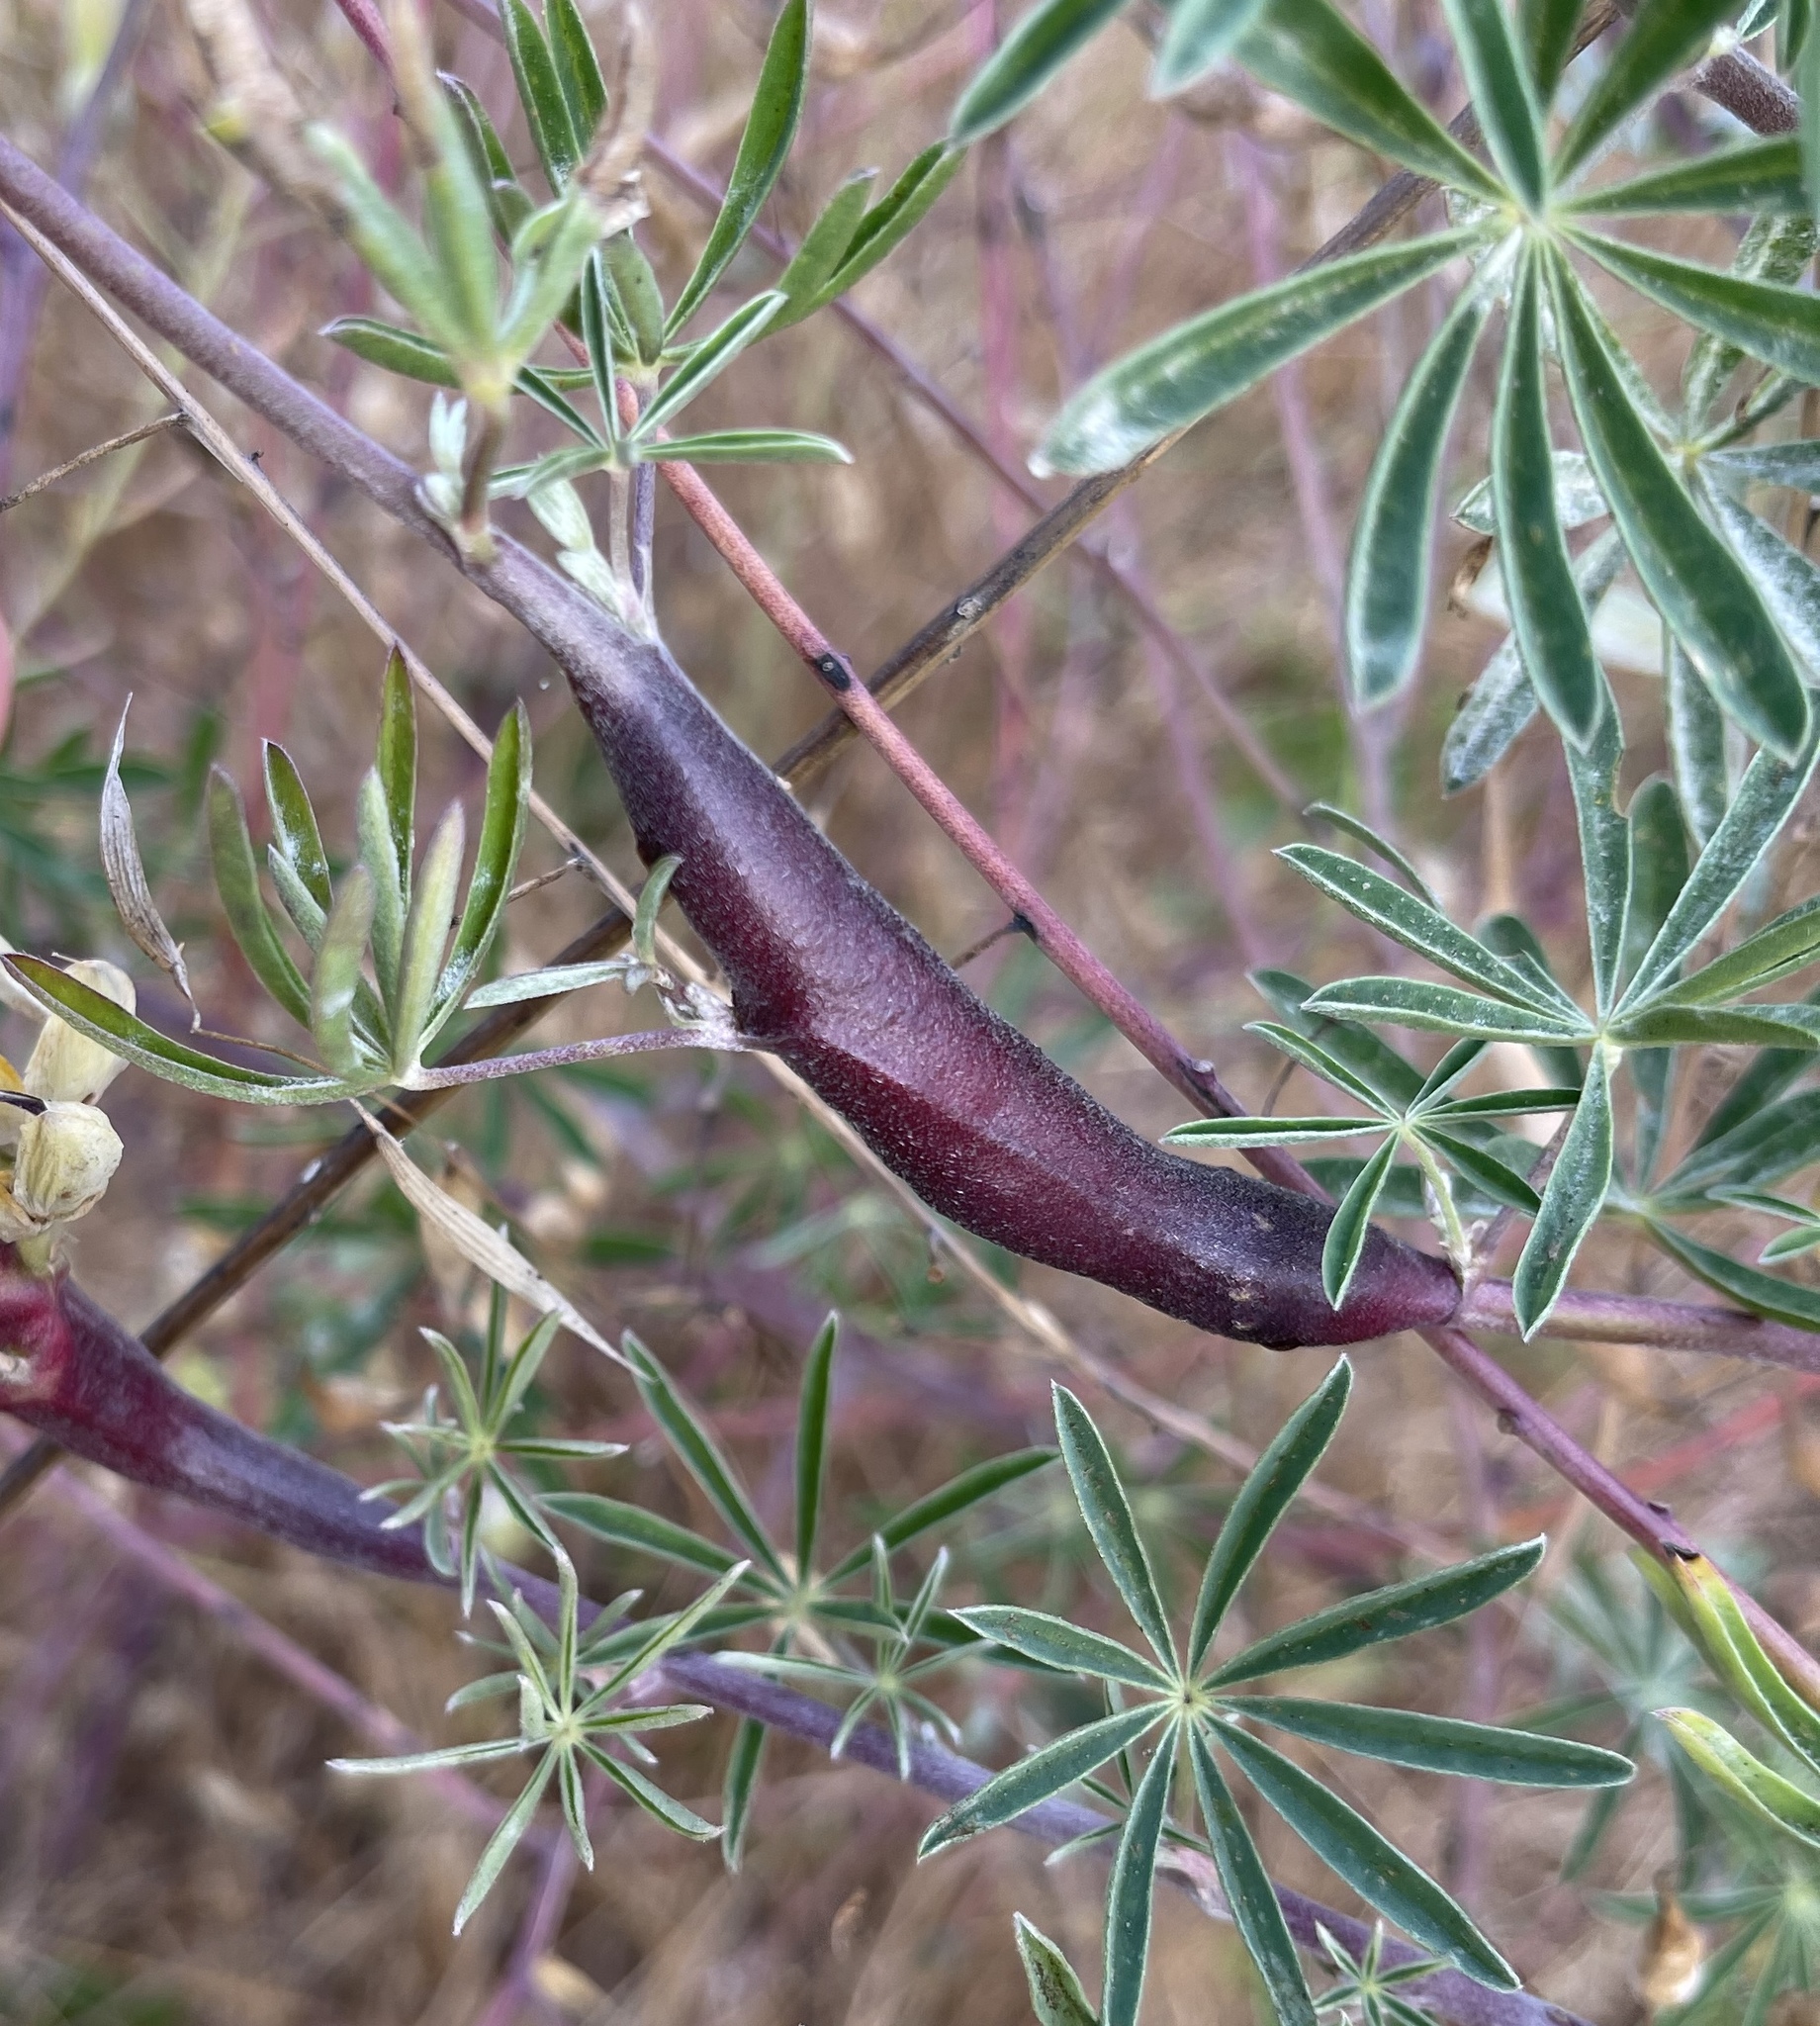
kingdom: Animalia
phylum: Arthropoda
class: Insecta
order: Diptera
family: Cecidomyiidae
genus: Neolasioptera
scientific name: Neolasioptera lupini
